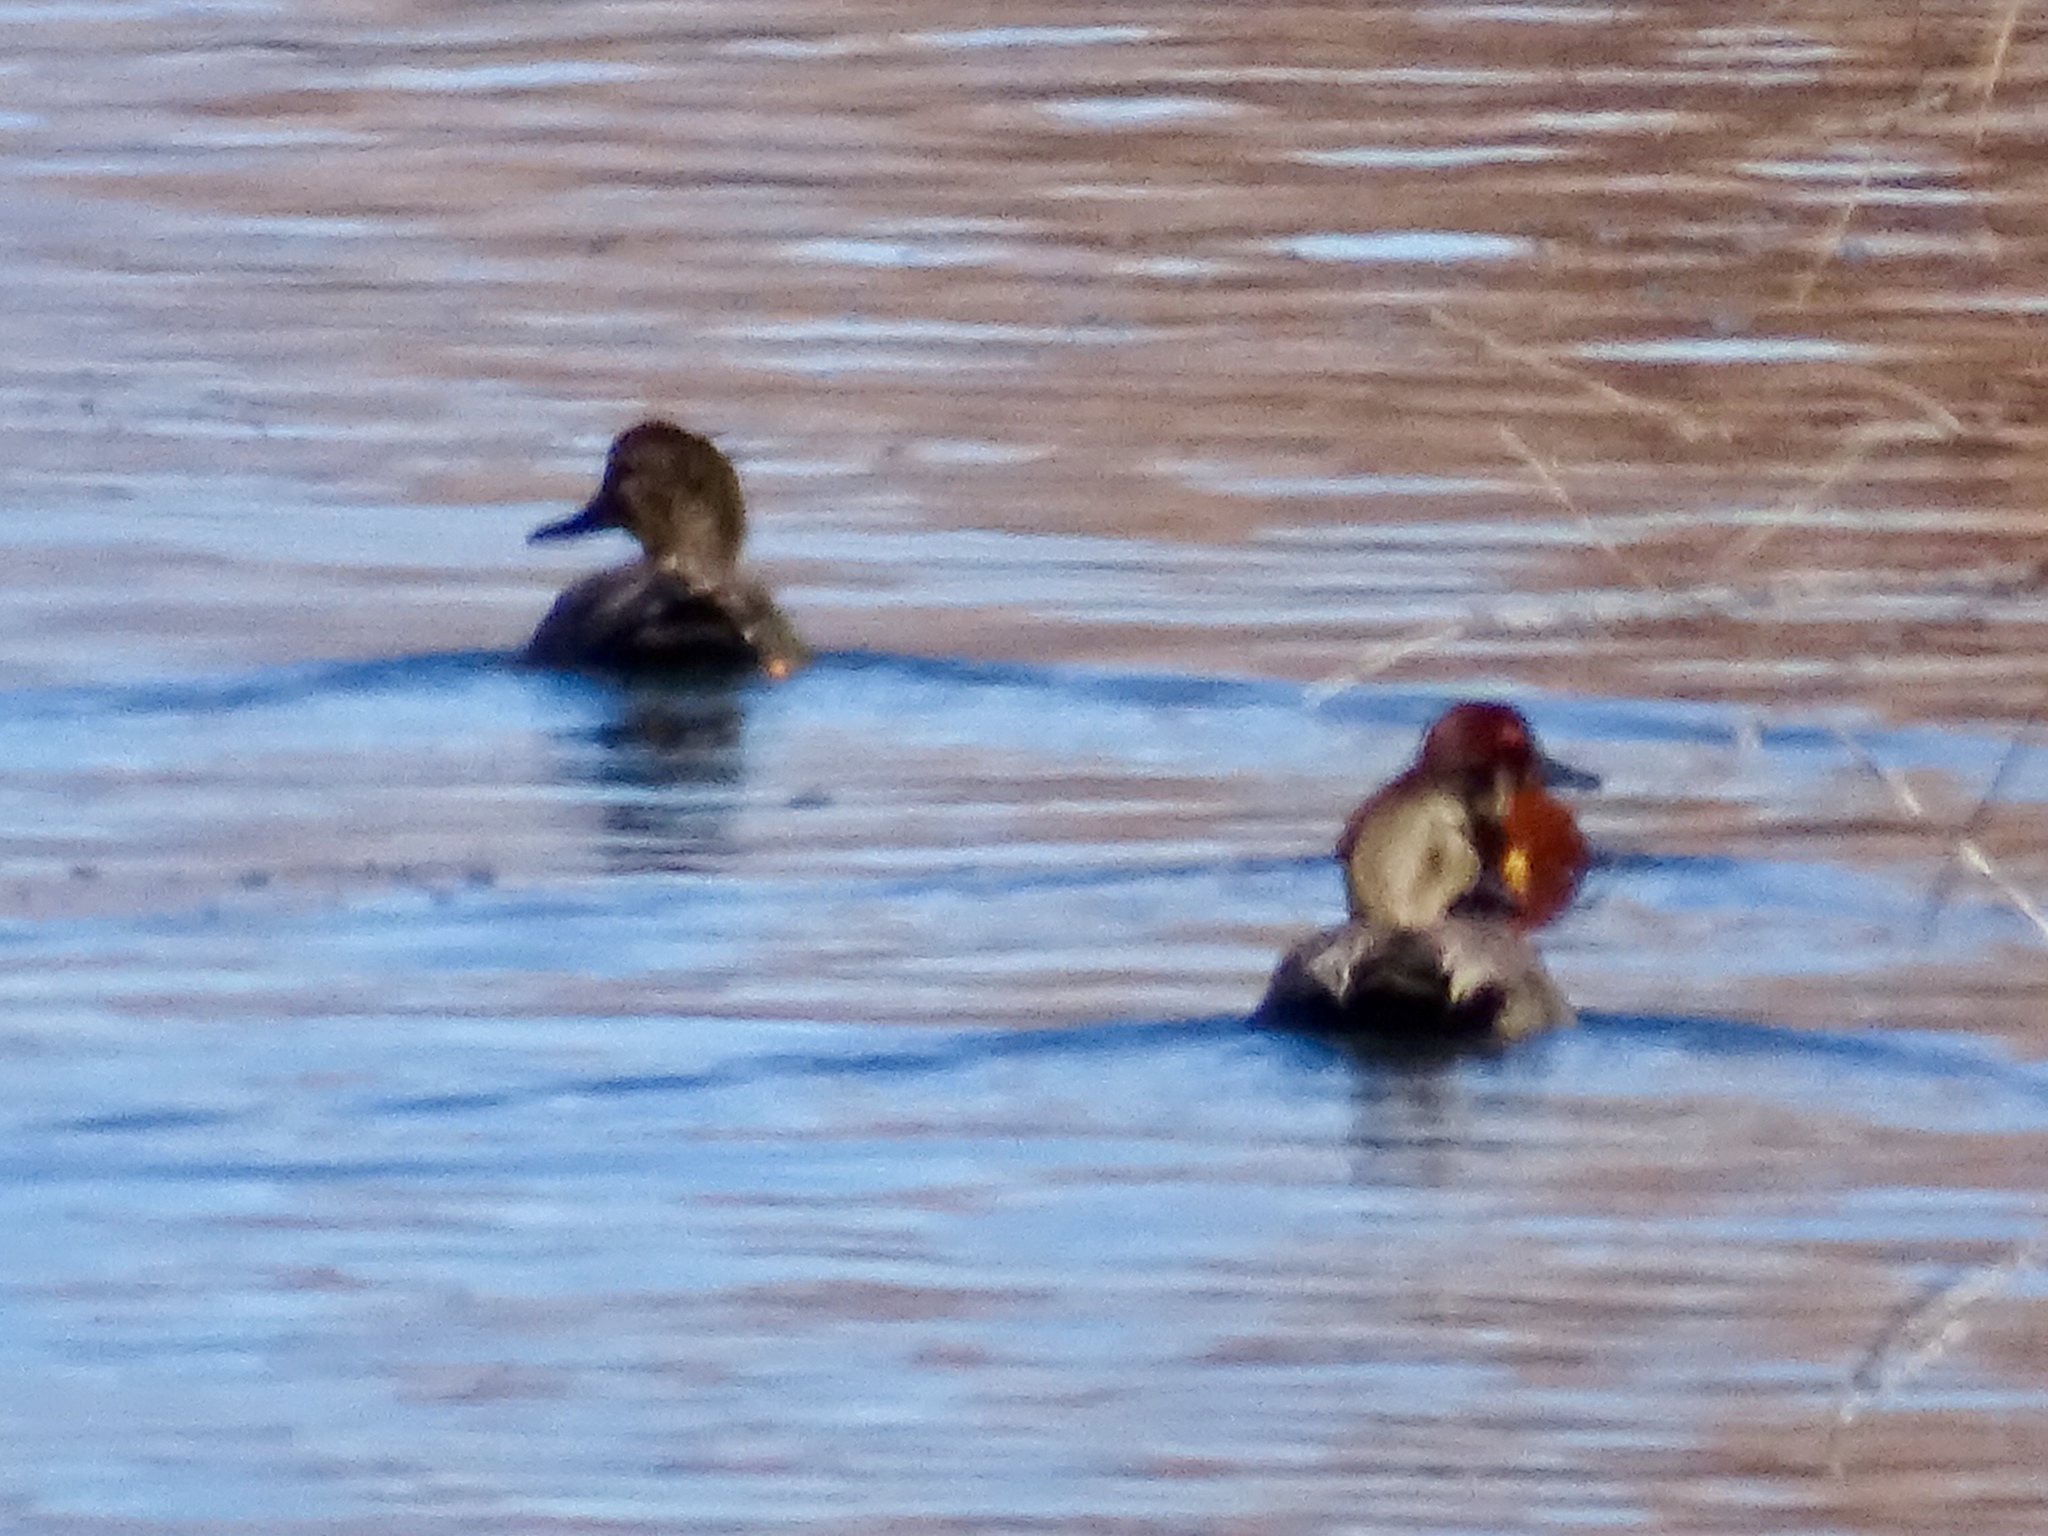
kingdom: Animalia
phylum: Chordata
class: Aves
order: Anseriformes
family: Anatidae
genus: Spatula
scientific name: Spatula cyanoptera
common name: Cinnamon teal
